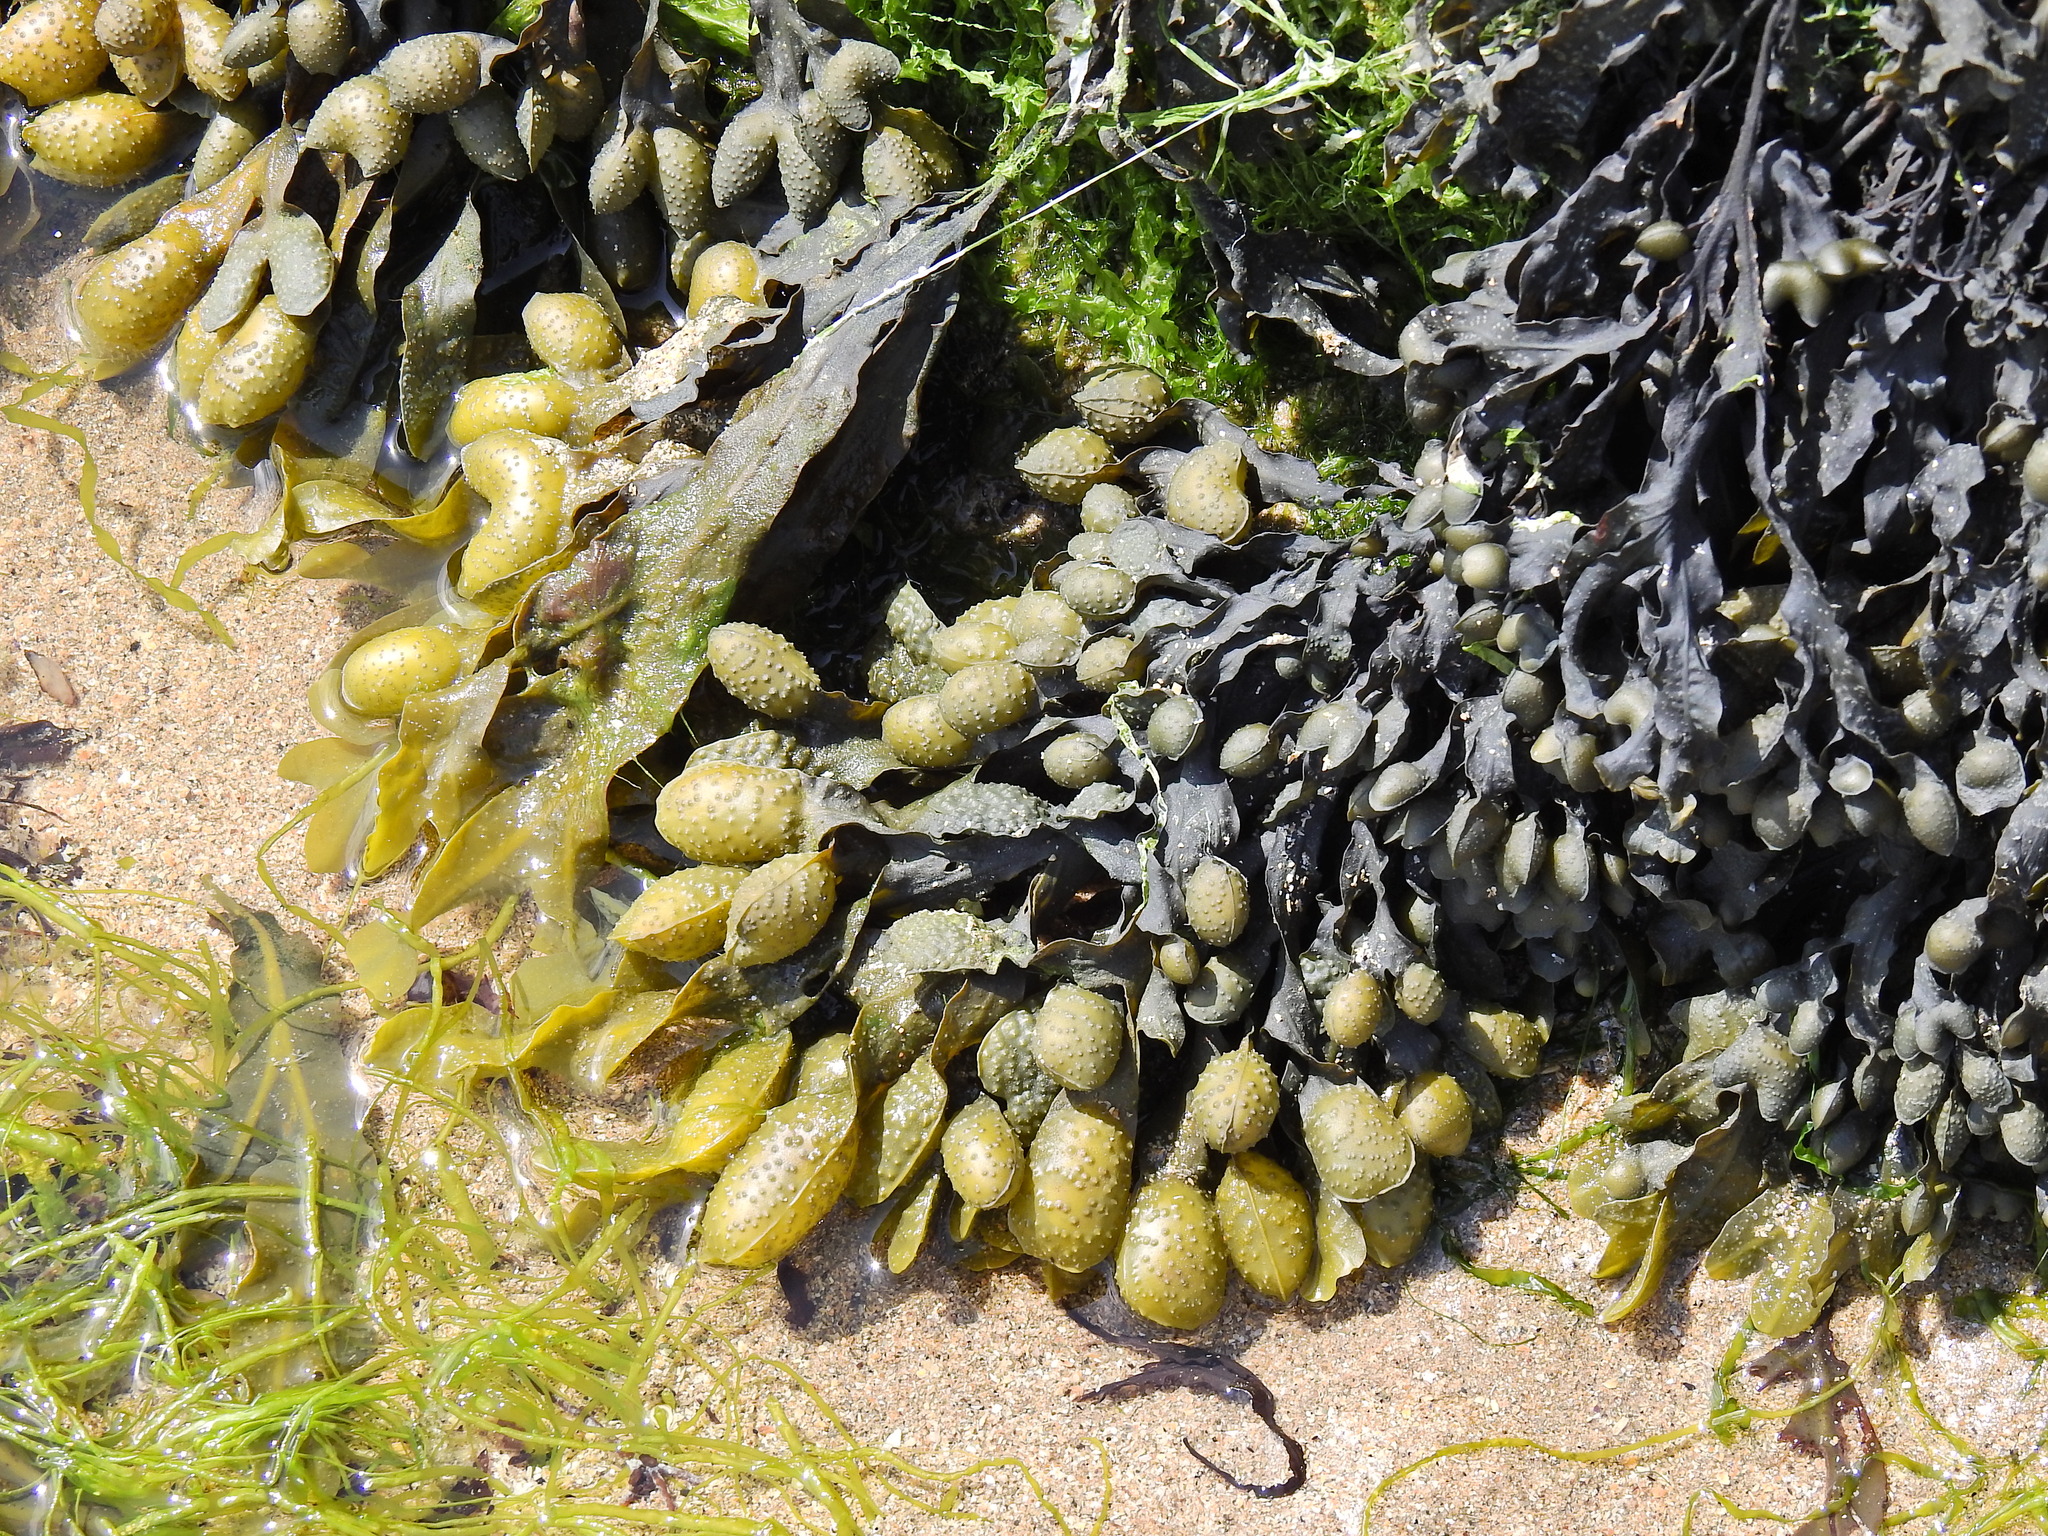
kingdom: Chromista
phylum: Ochrophyta
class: Phaeophyceae
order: Fucales
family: Fucaceae
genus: Fucus
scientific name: Fucus spiralis
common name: Spiral wrack
